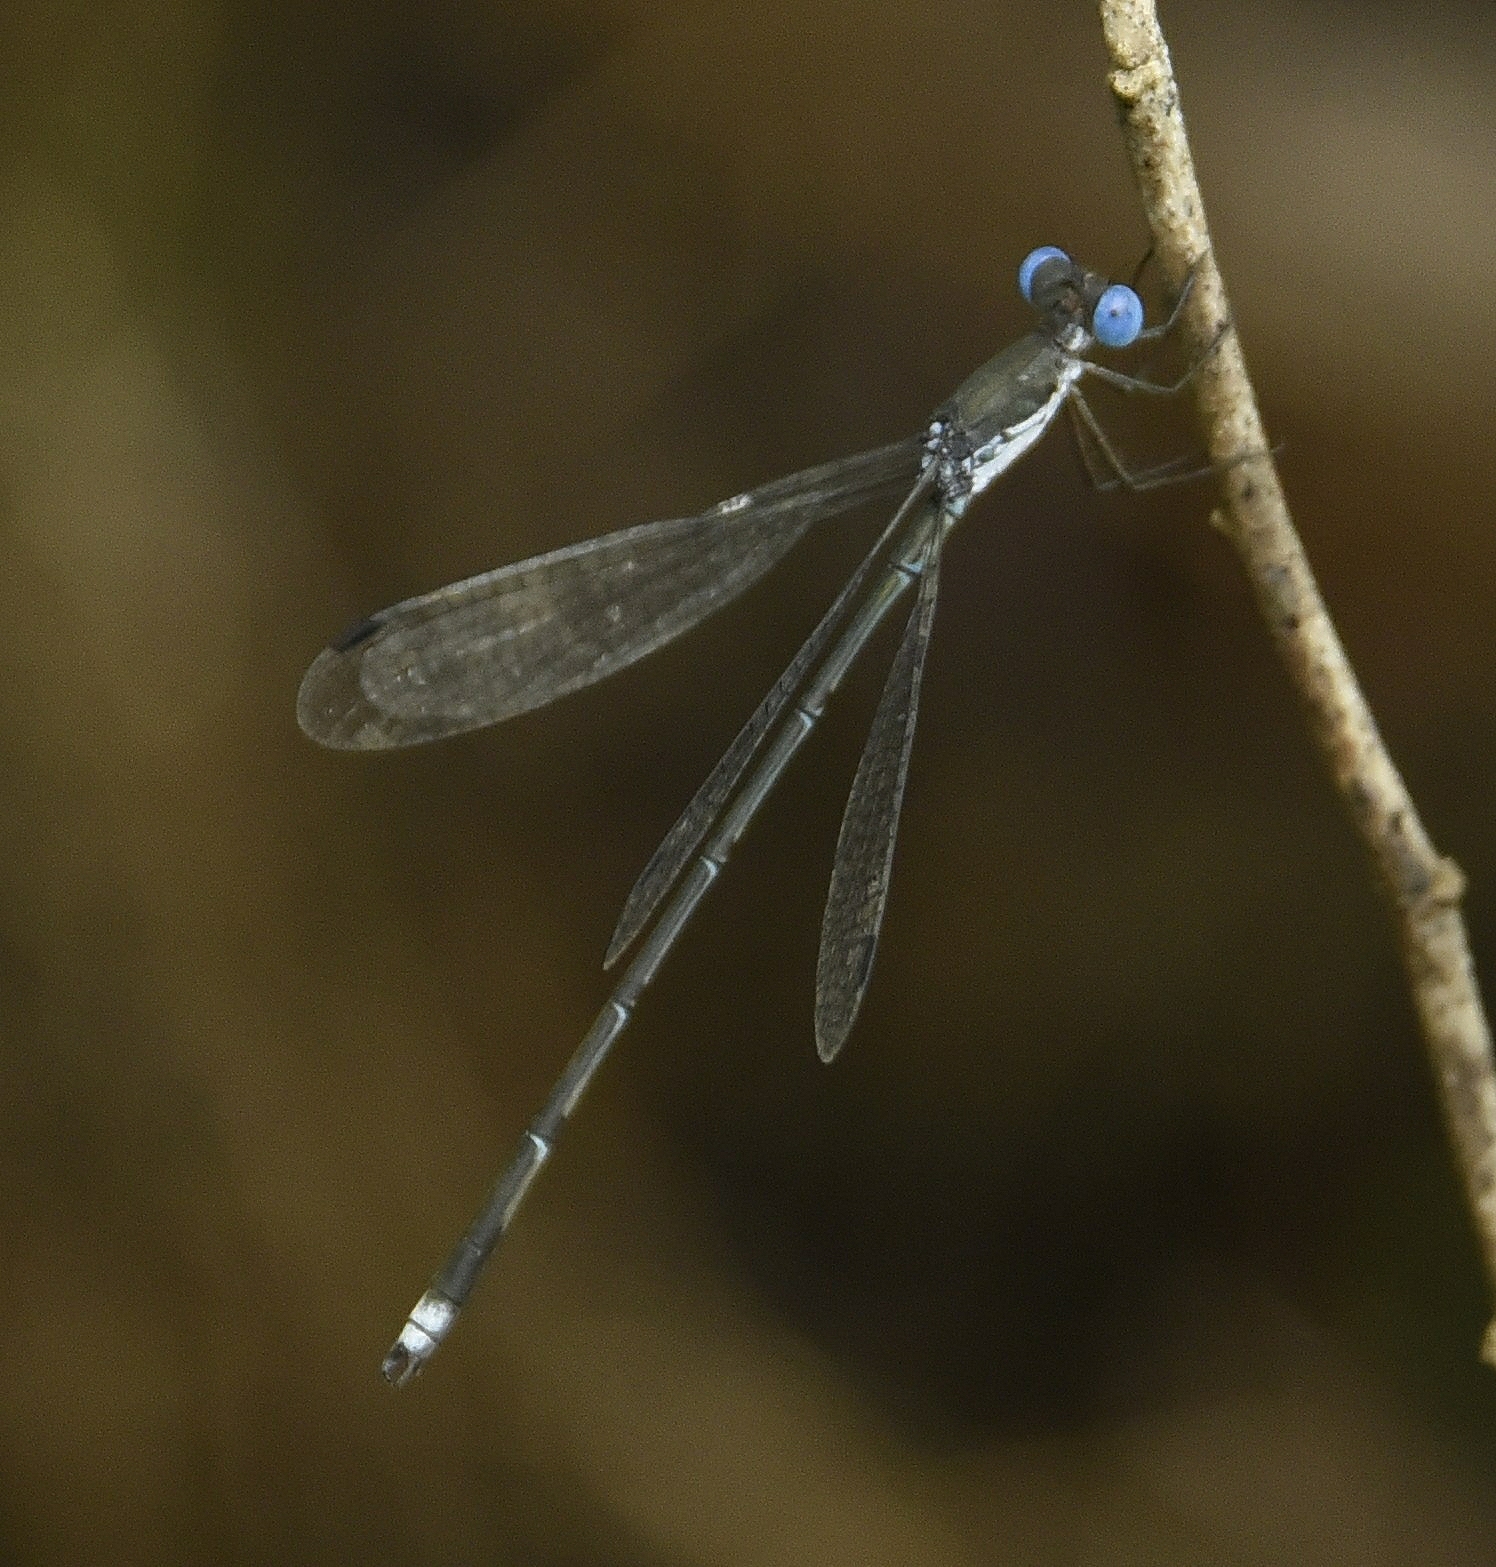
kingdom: Animalia
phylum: Arthropoda
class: Insecta
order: Odonata
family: Lestidae
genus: Lestes
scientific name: Lestes malabaricus
